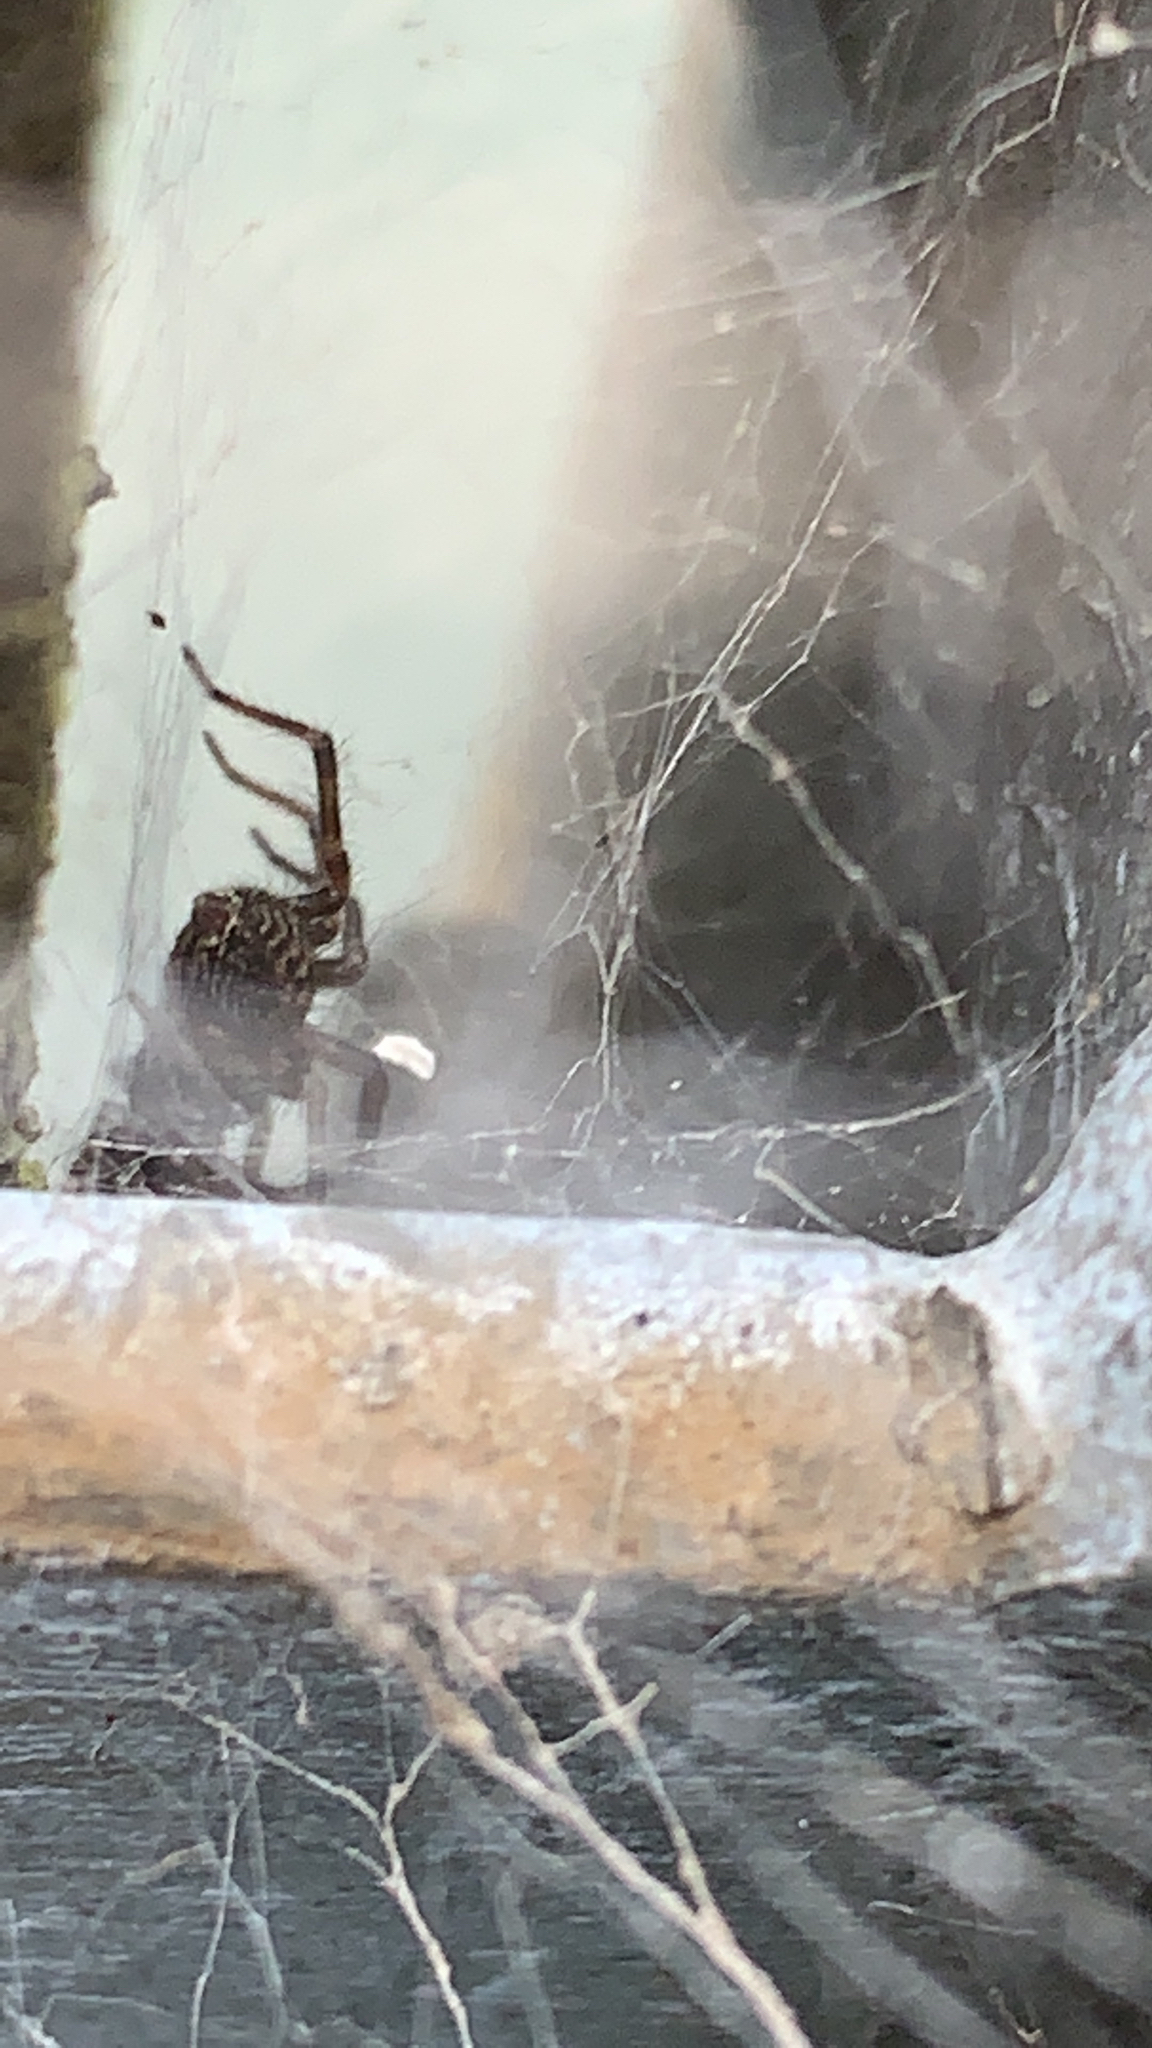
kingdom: Animalia
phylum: Arthropoda
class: Arachnida
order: Araneae
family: Desidae
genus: Badumna
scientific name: Badumna longinqua
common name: Gray house spider
